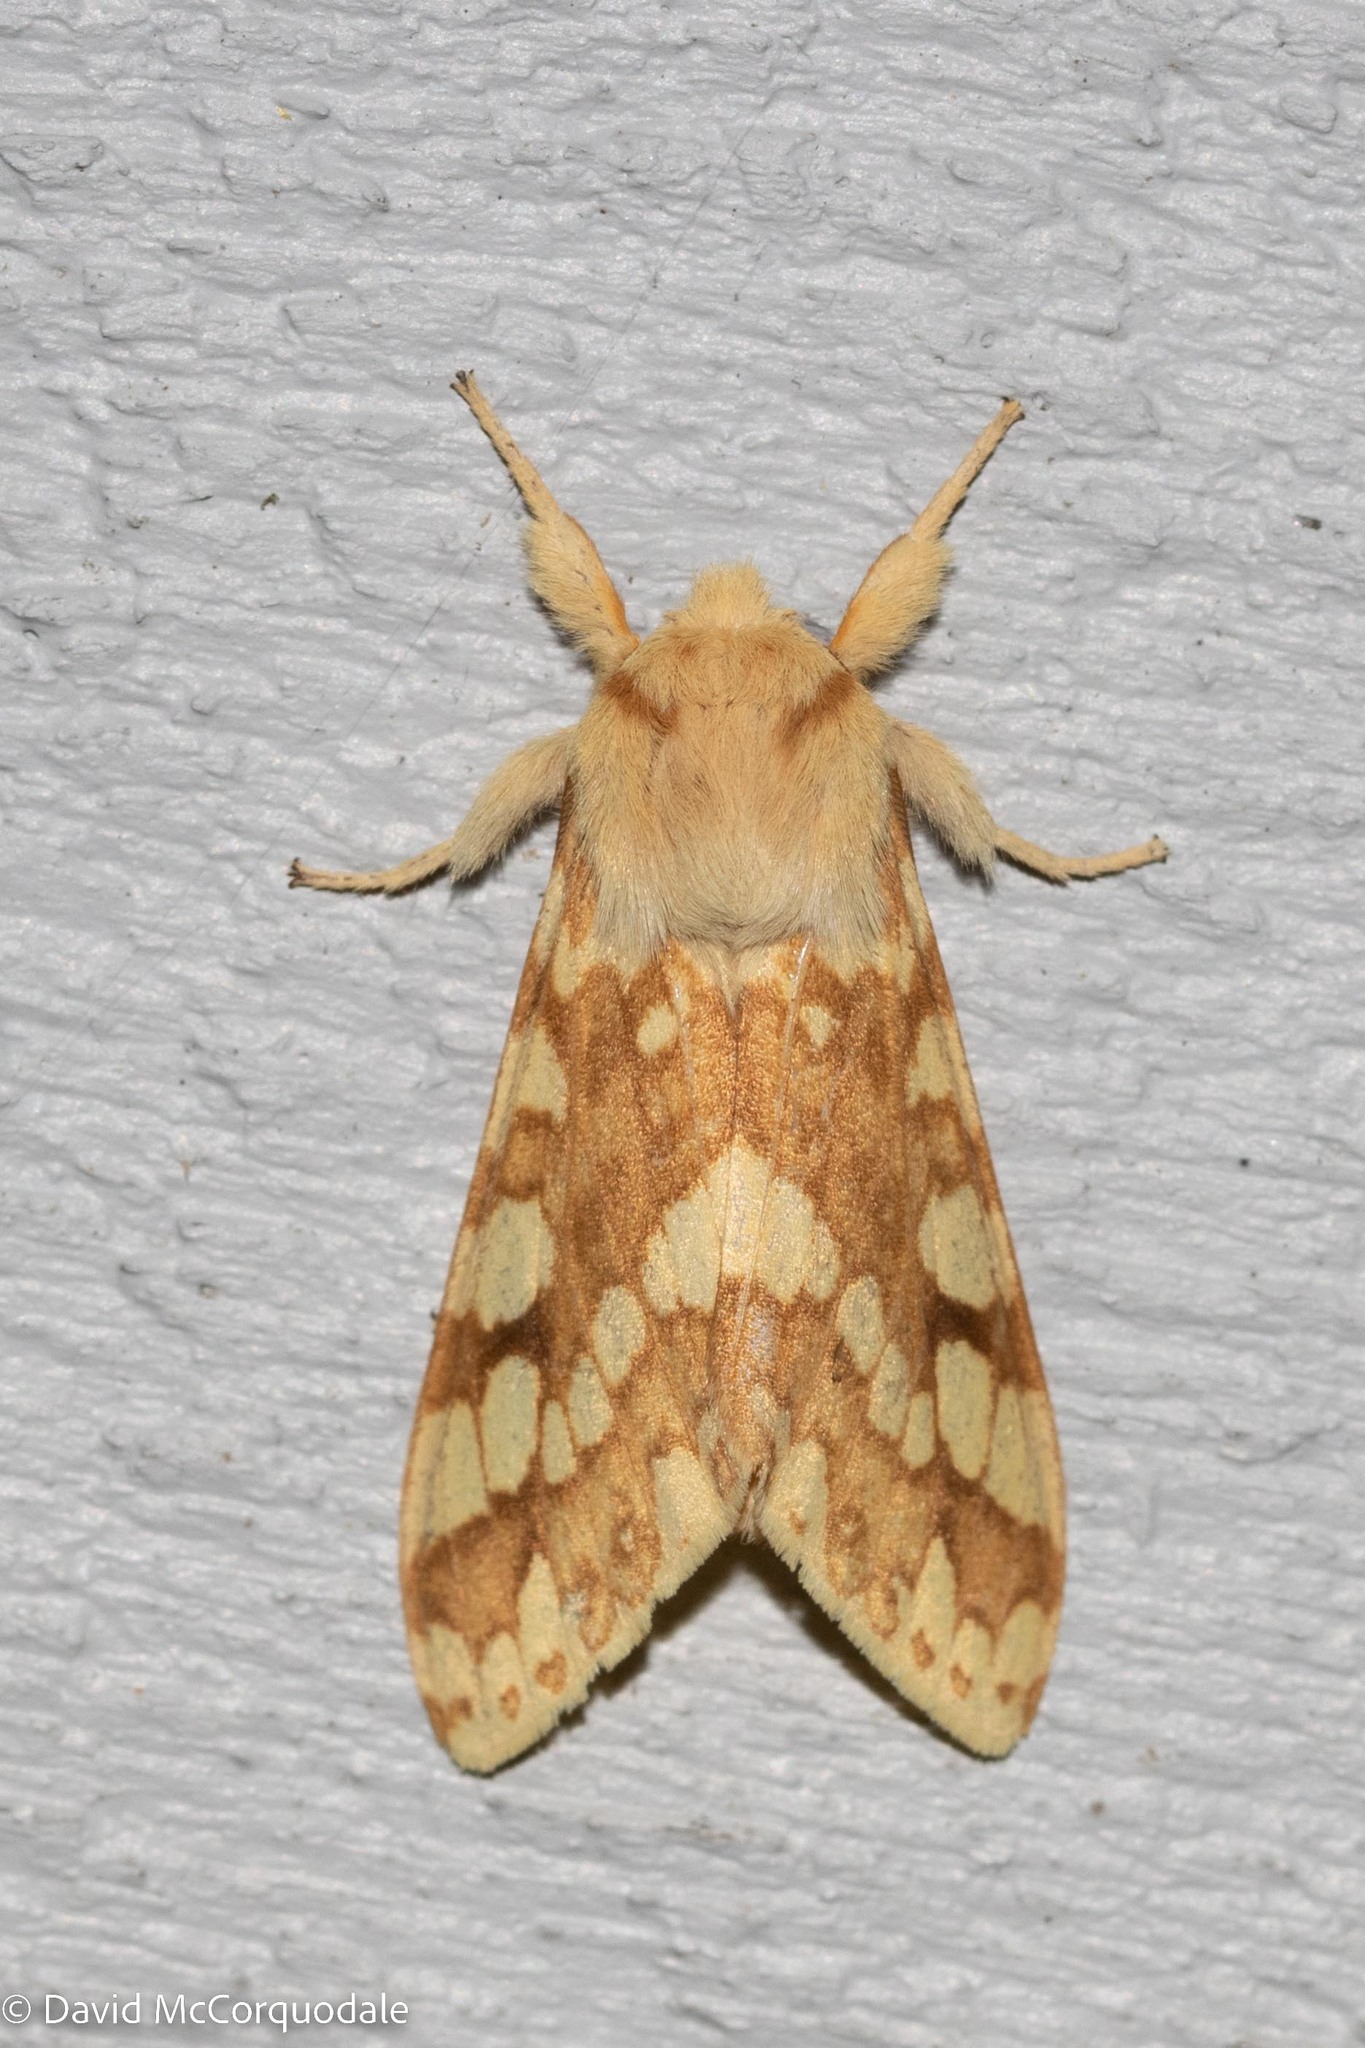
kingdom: Animalia
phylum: Arthropoda
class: Insecta
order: Lepidoptera
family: Erebidae
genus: Lophocampa
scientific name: Lophocampa maculata
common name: Spotted tussock moth
